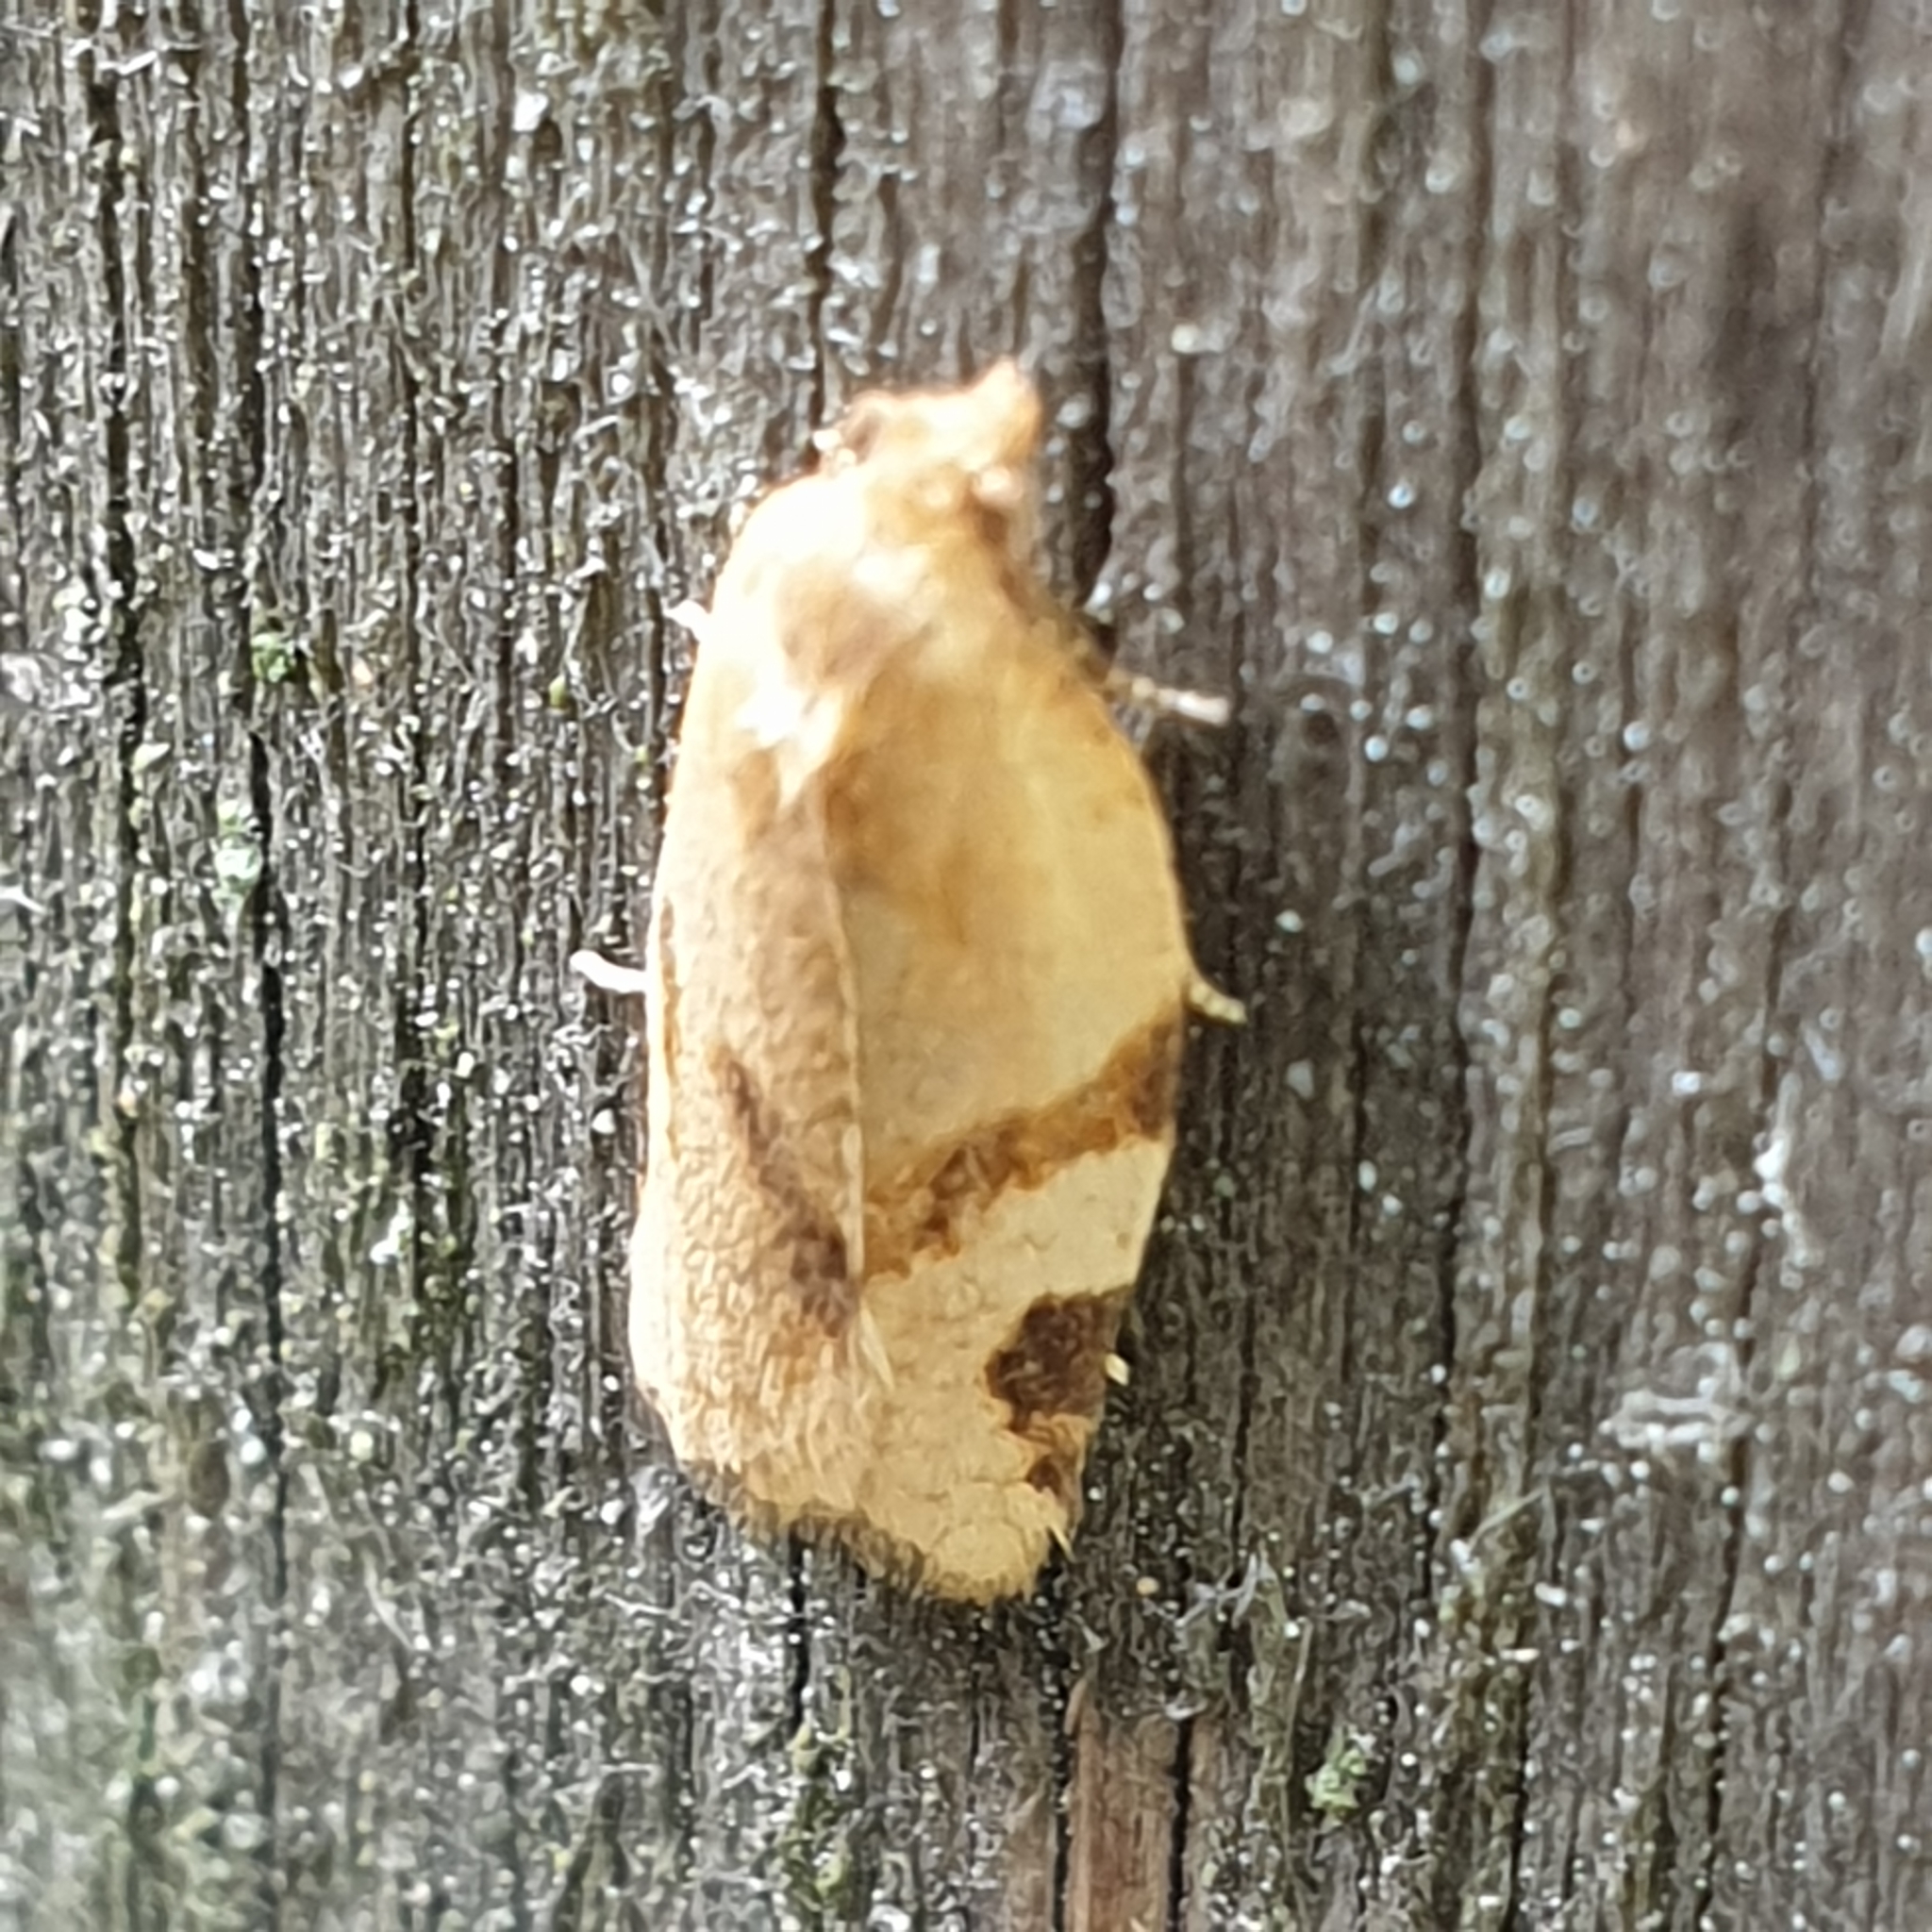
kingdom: Animalia
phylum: Arthropoda
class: Insecta
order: Lepidoptera
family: Tortricidae
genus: Paramesia
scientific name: Paramesia gnomana
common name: Small straw twist
